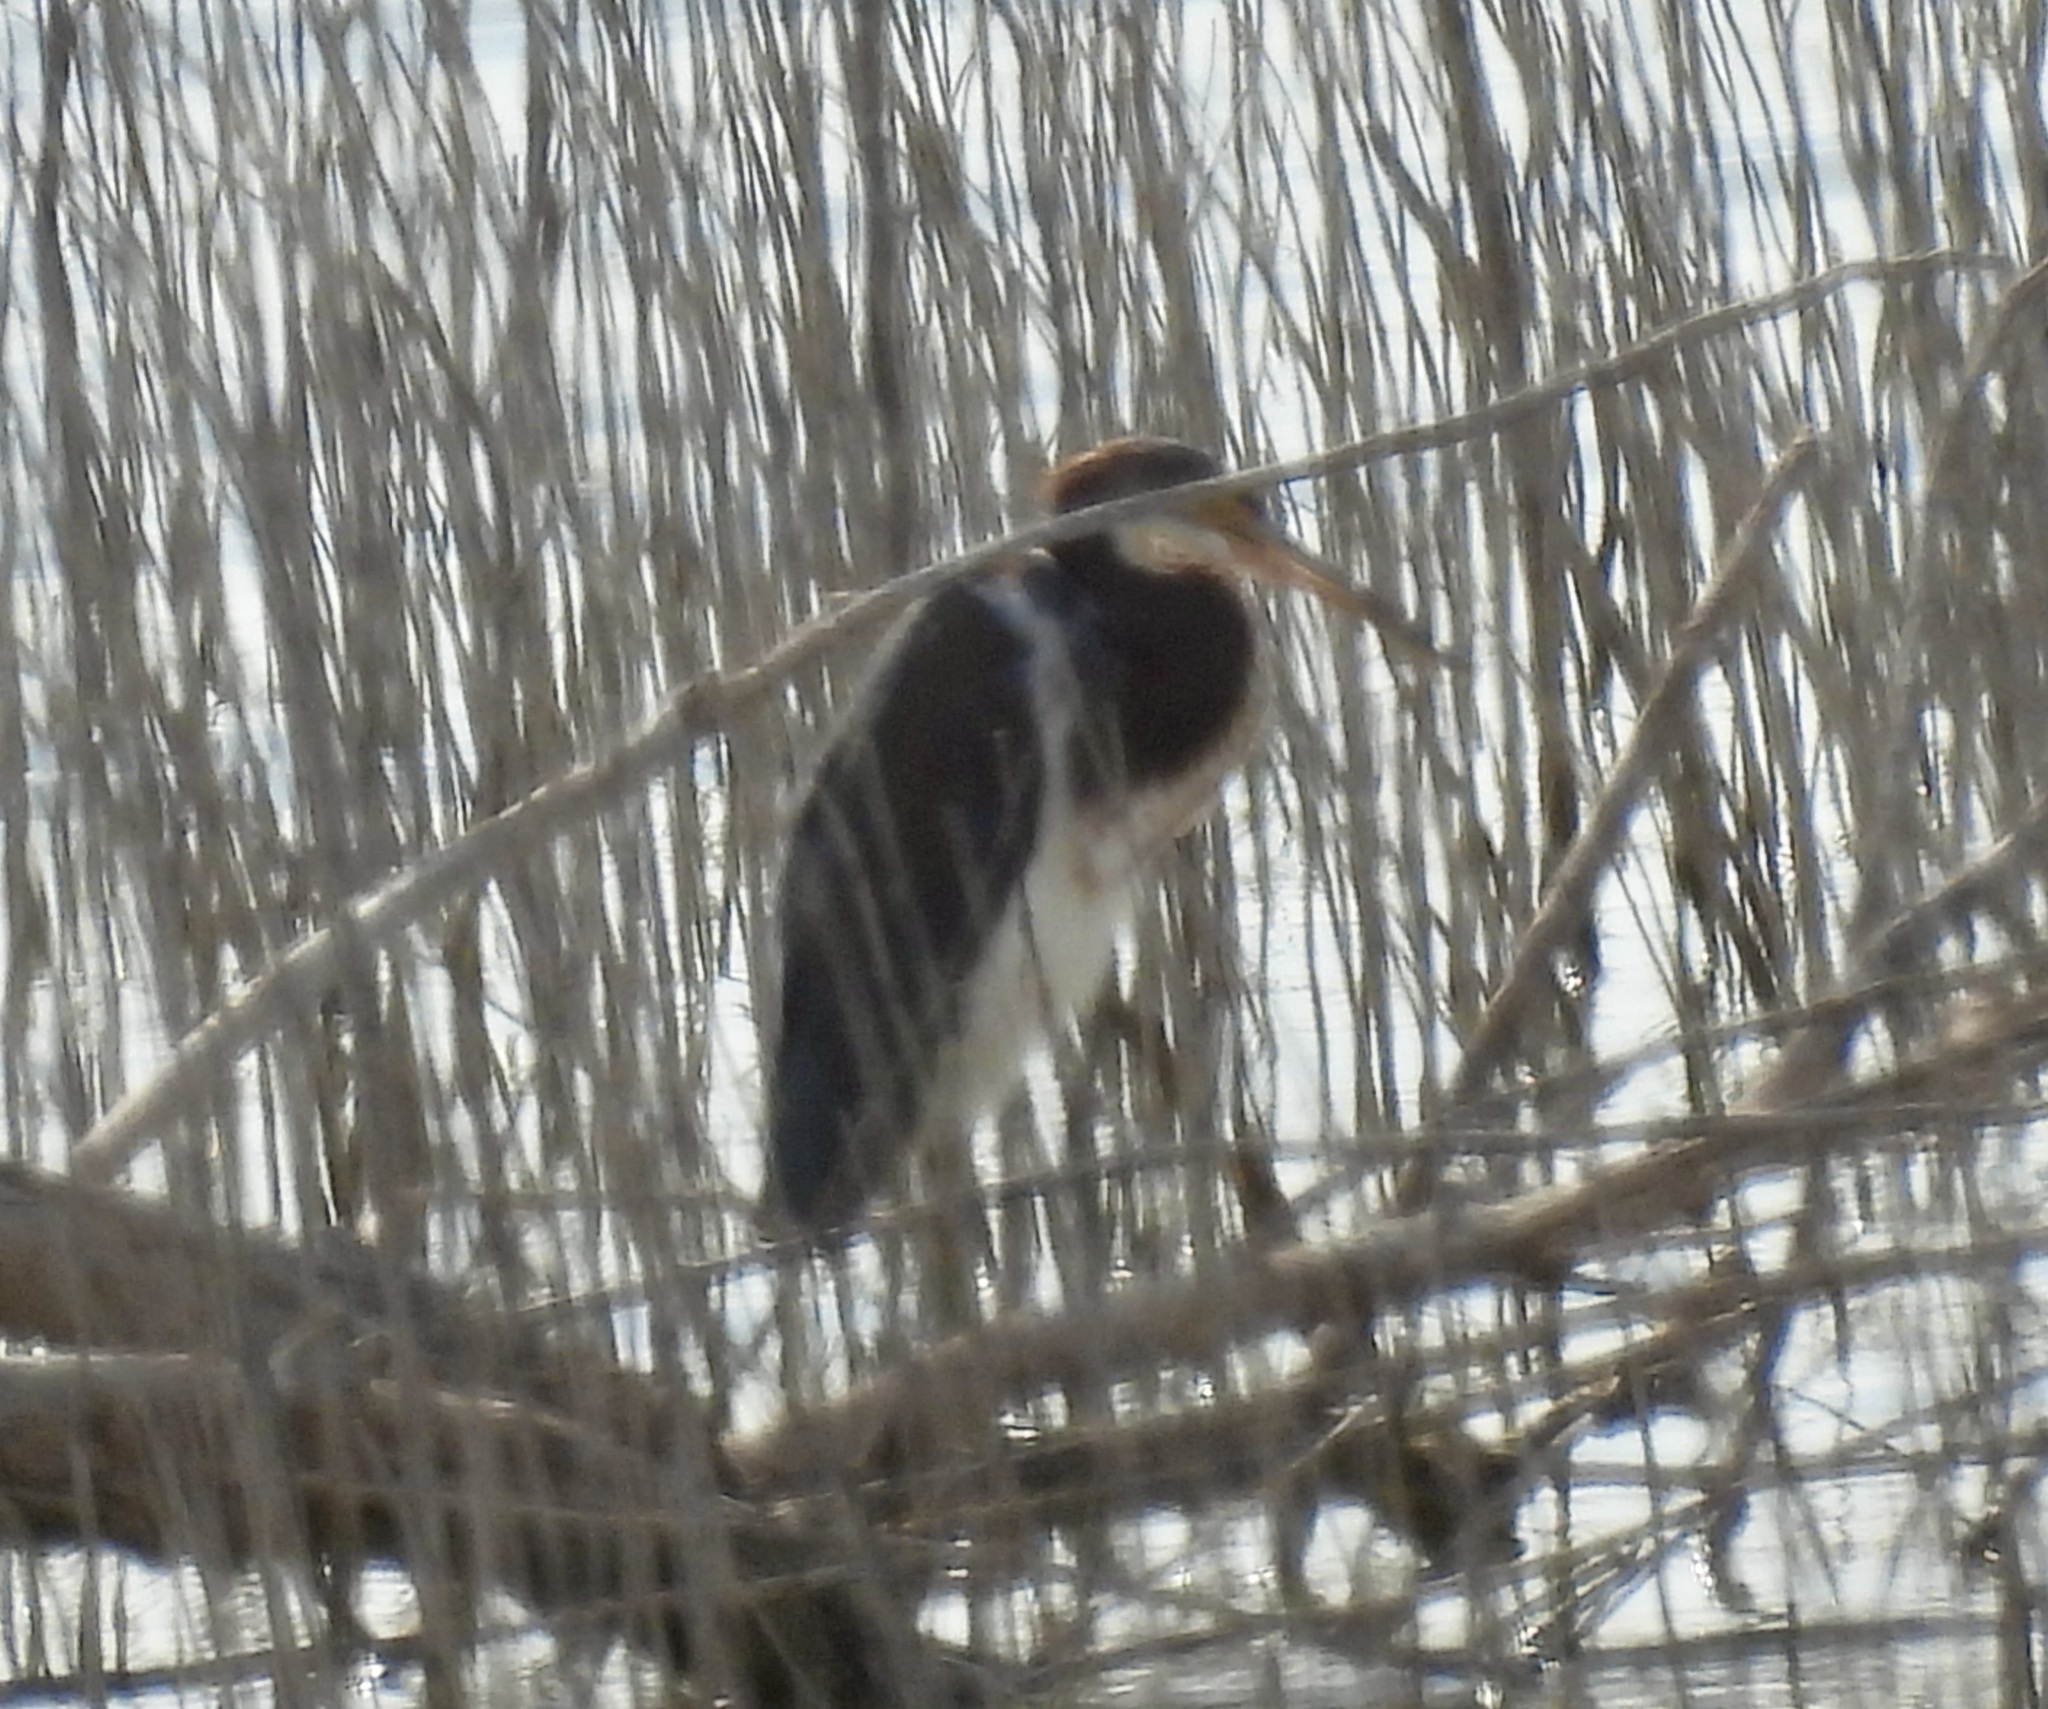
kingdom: Animalia
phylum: Chordata
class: Aves
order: Pelecaniformes
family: Ardeidae
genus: Egretta
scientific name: Egretta tricolor
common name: Tricolored heron
